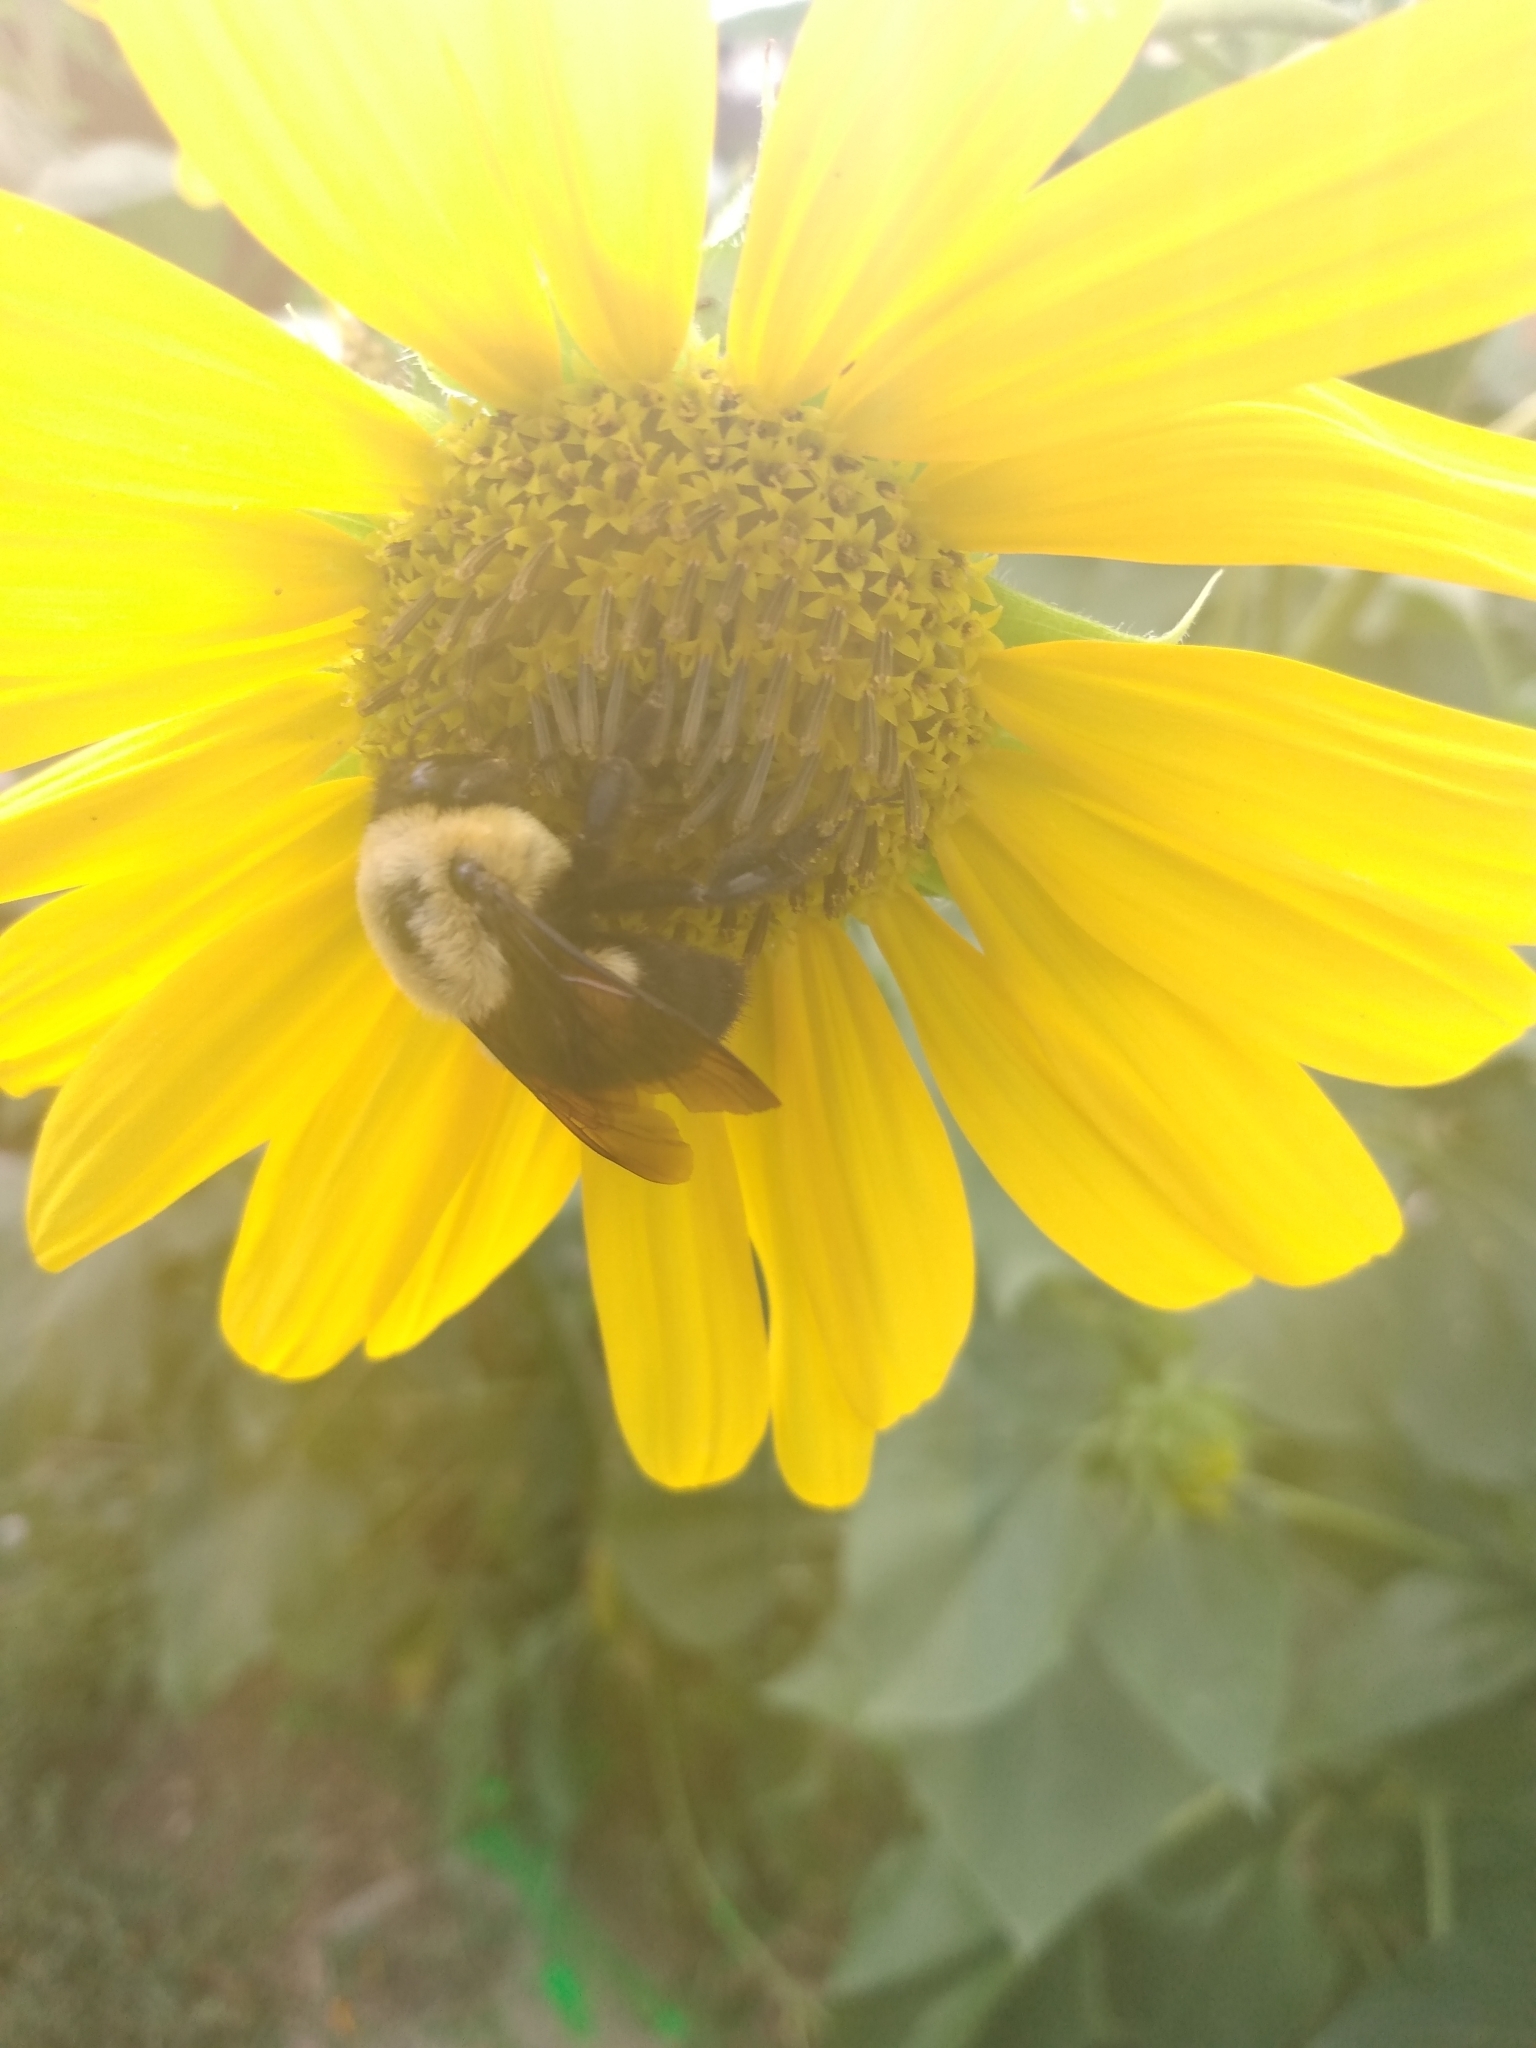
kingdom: Animalia
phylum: Arthropoda
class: Insecta
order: Hymenoptera
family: Apidae
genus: Bombus
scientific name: Bombus griseocollis
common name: Brown-belted bumble bee
